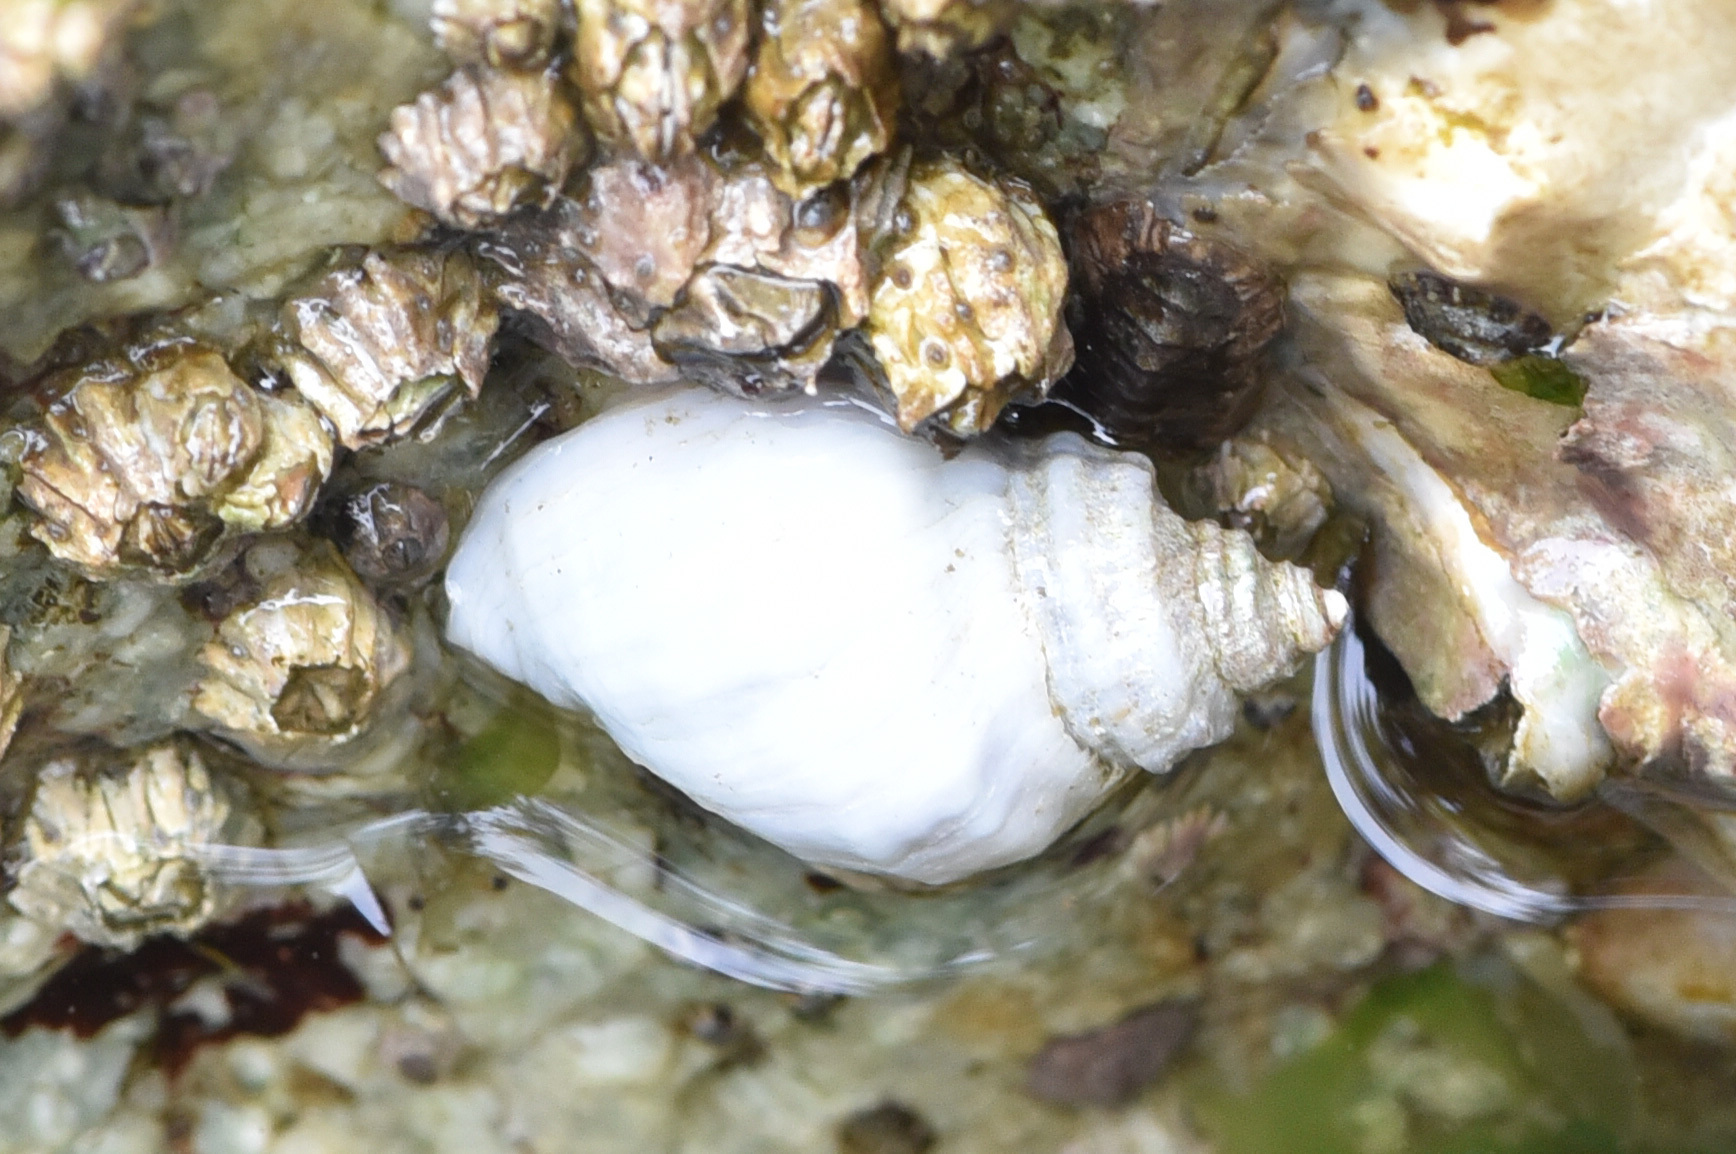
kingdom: Animalia
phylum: Mollusca
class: Gastropoda
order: Neogastropoda
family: Muricidae
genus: Nucella
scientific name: Nucella lamellosa
